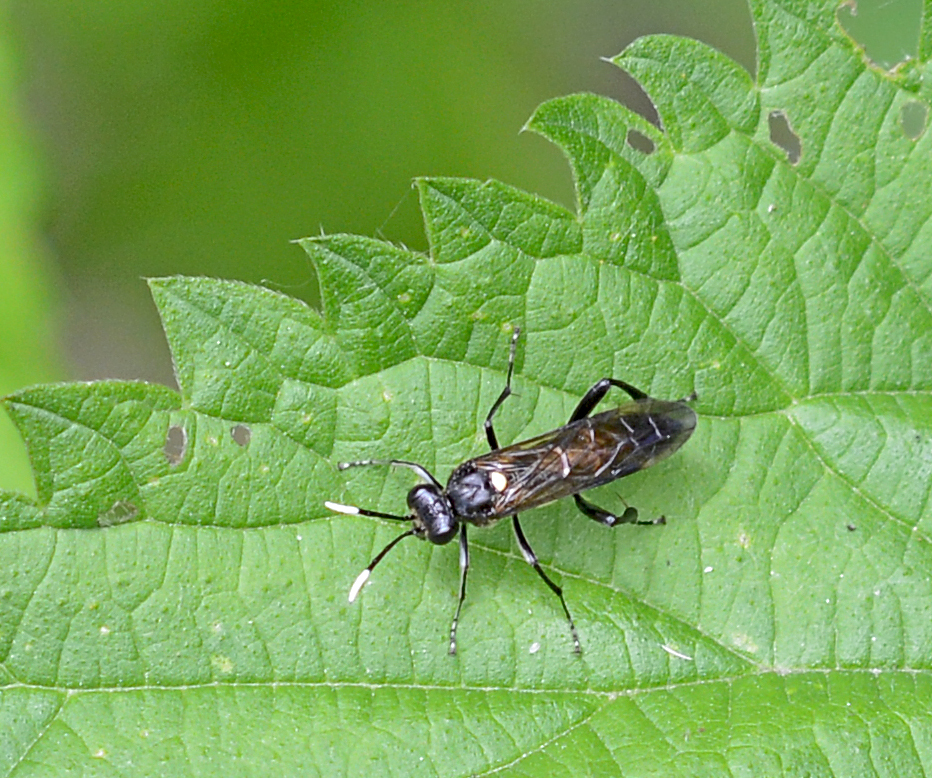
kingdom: Animalia
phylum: Arthropoda
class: Insecta
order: Hymenoptera
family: Tenthredinidae
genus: Macrophya
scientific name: Macrophya infumata
